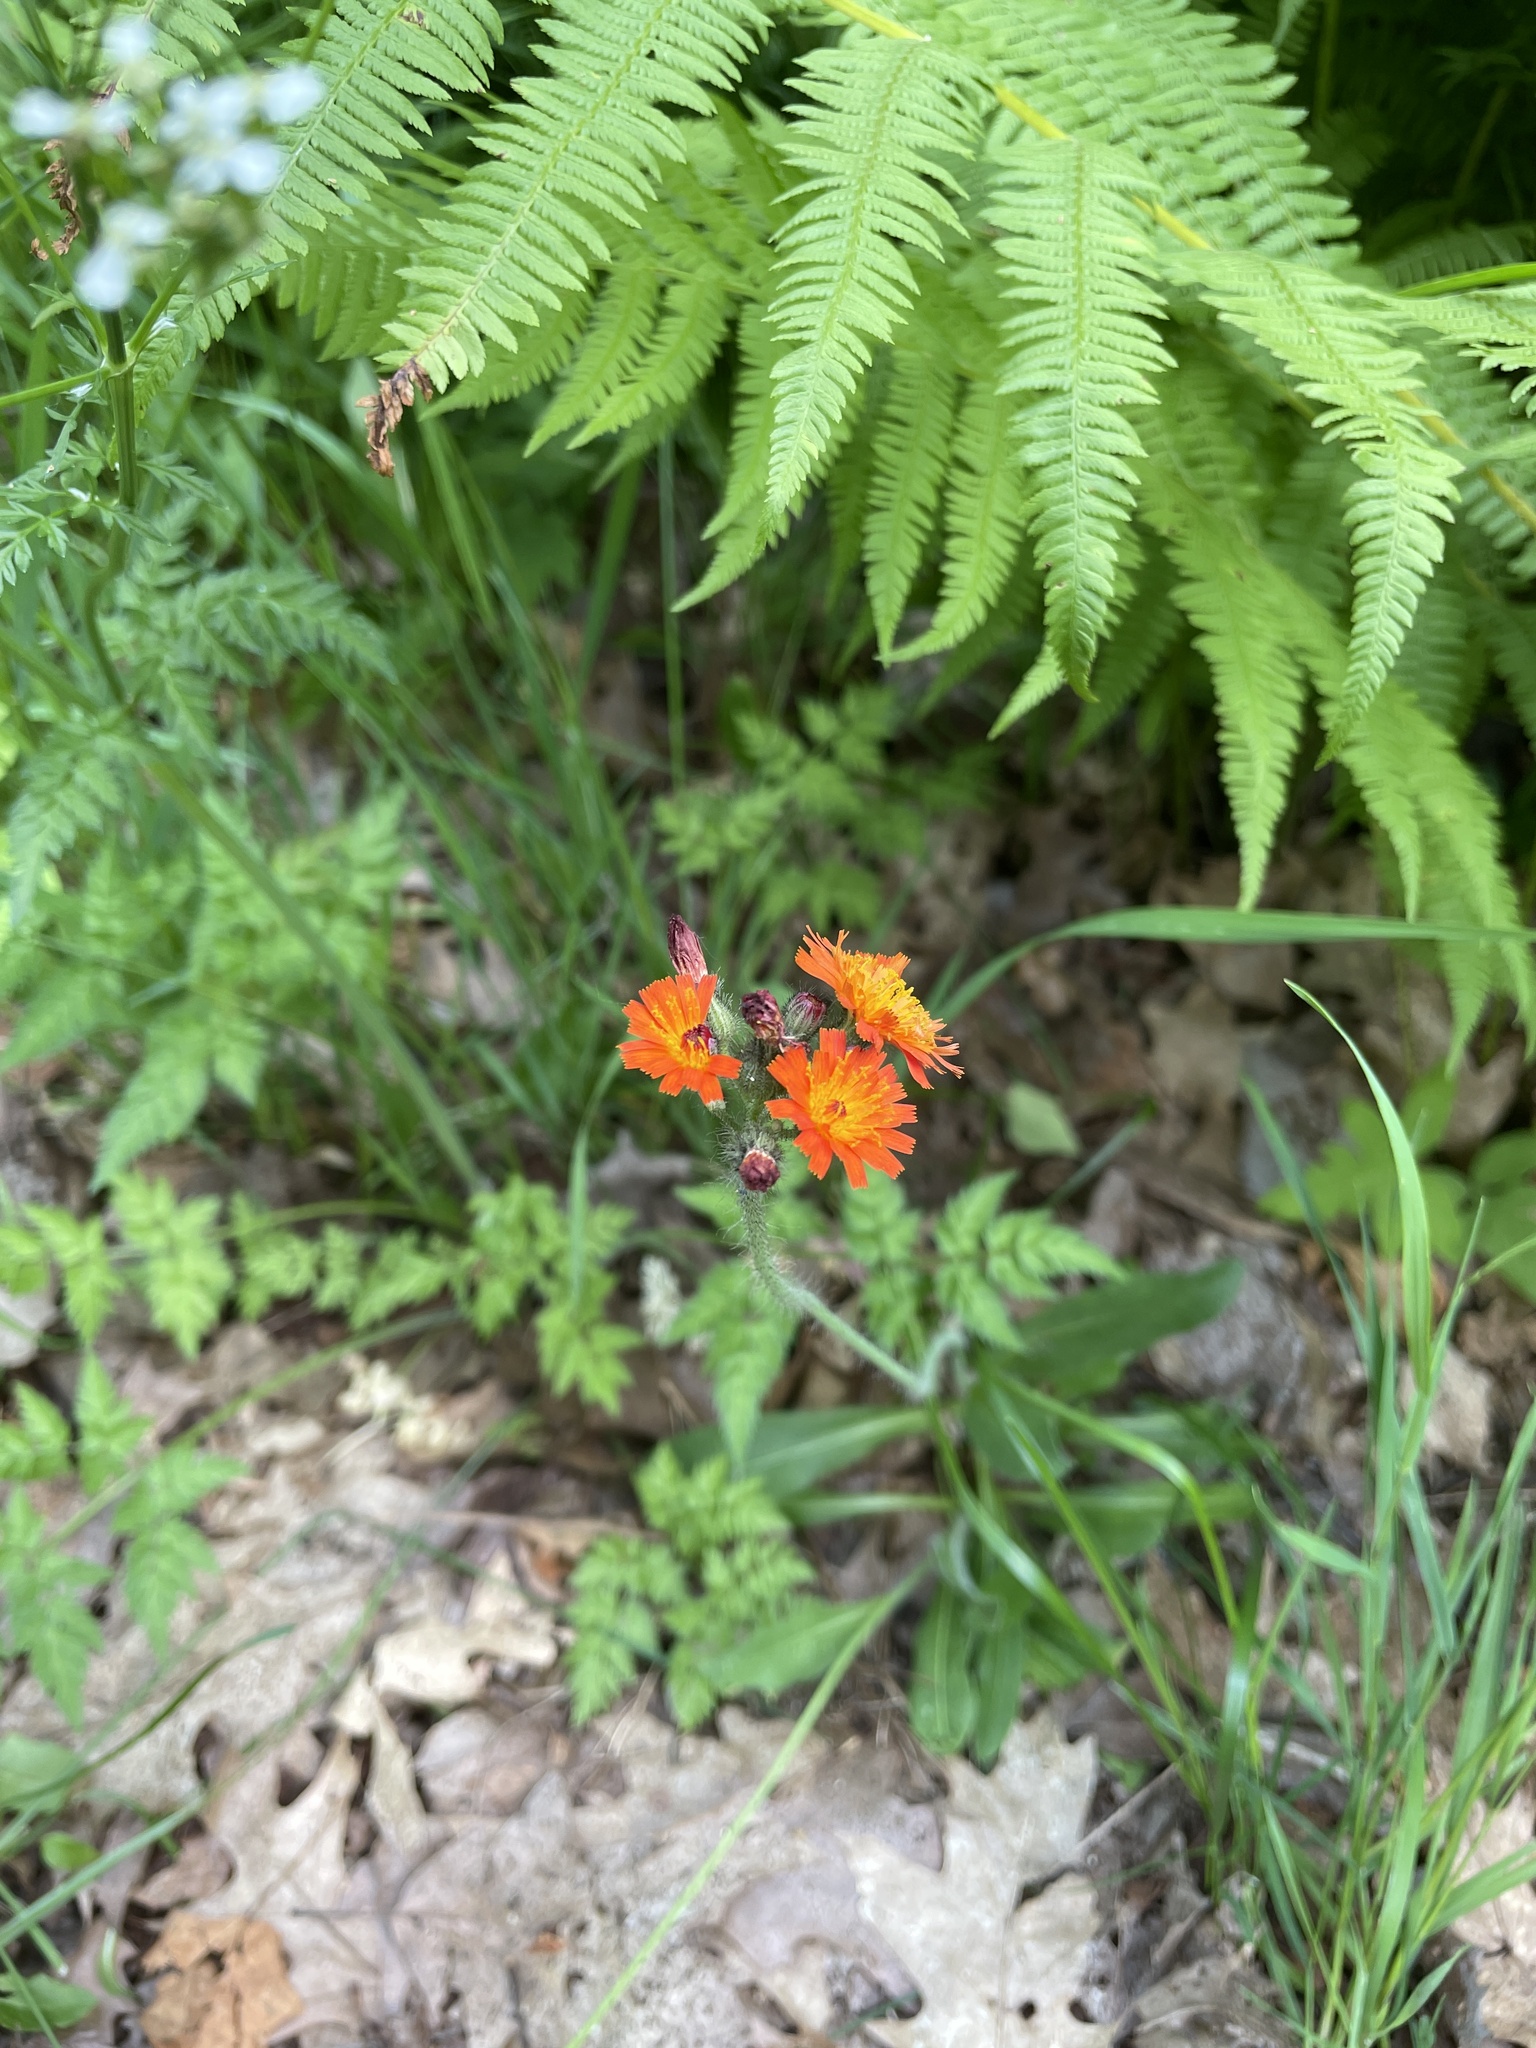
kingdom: Plantae
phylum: Tracheophyta
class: Magnoliopsida
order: Asterales
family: Asteraceae
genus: Pilosella
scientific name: Pilosella aurantiaca
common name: Fox-and-cubs
